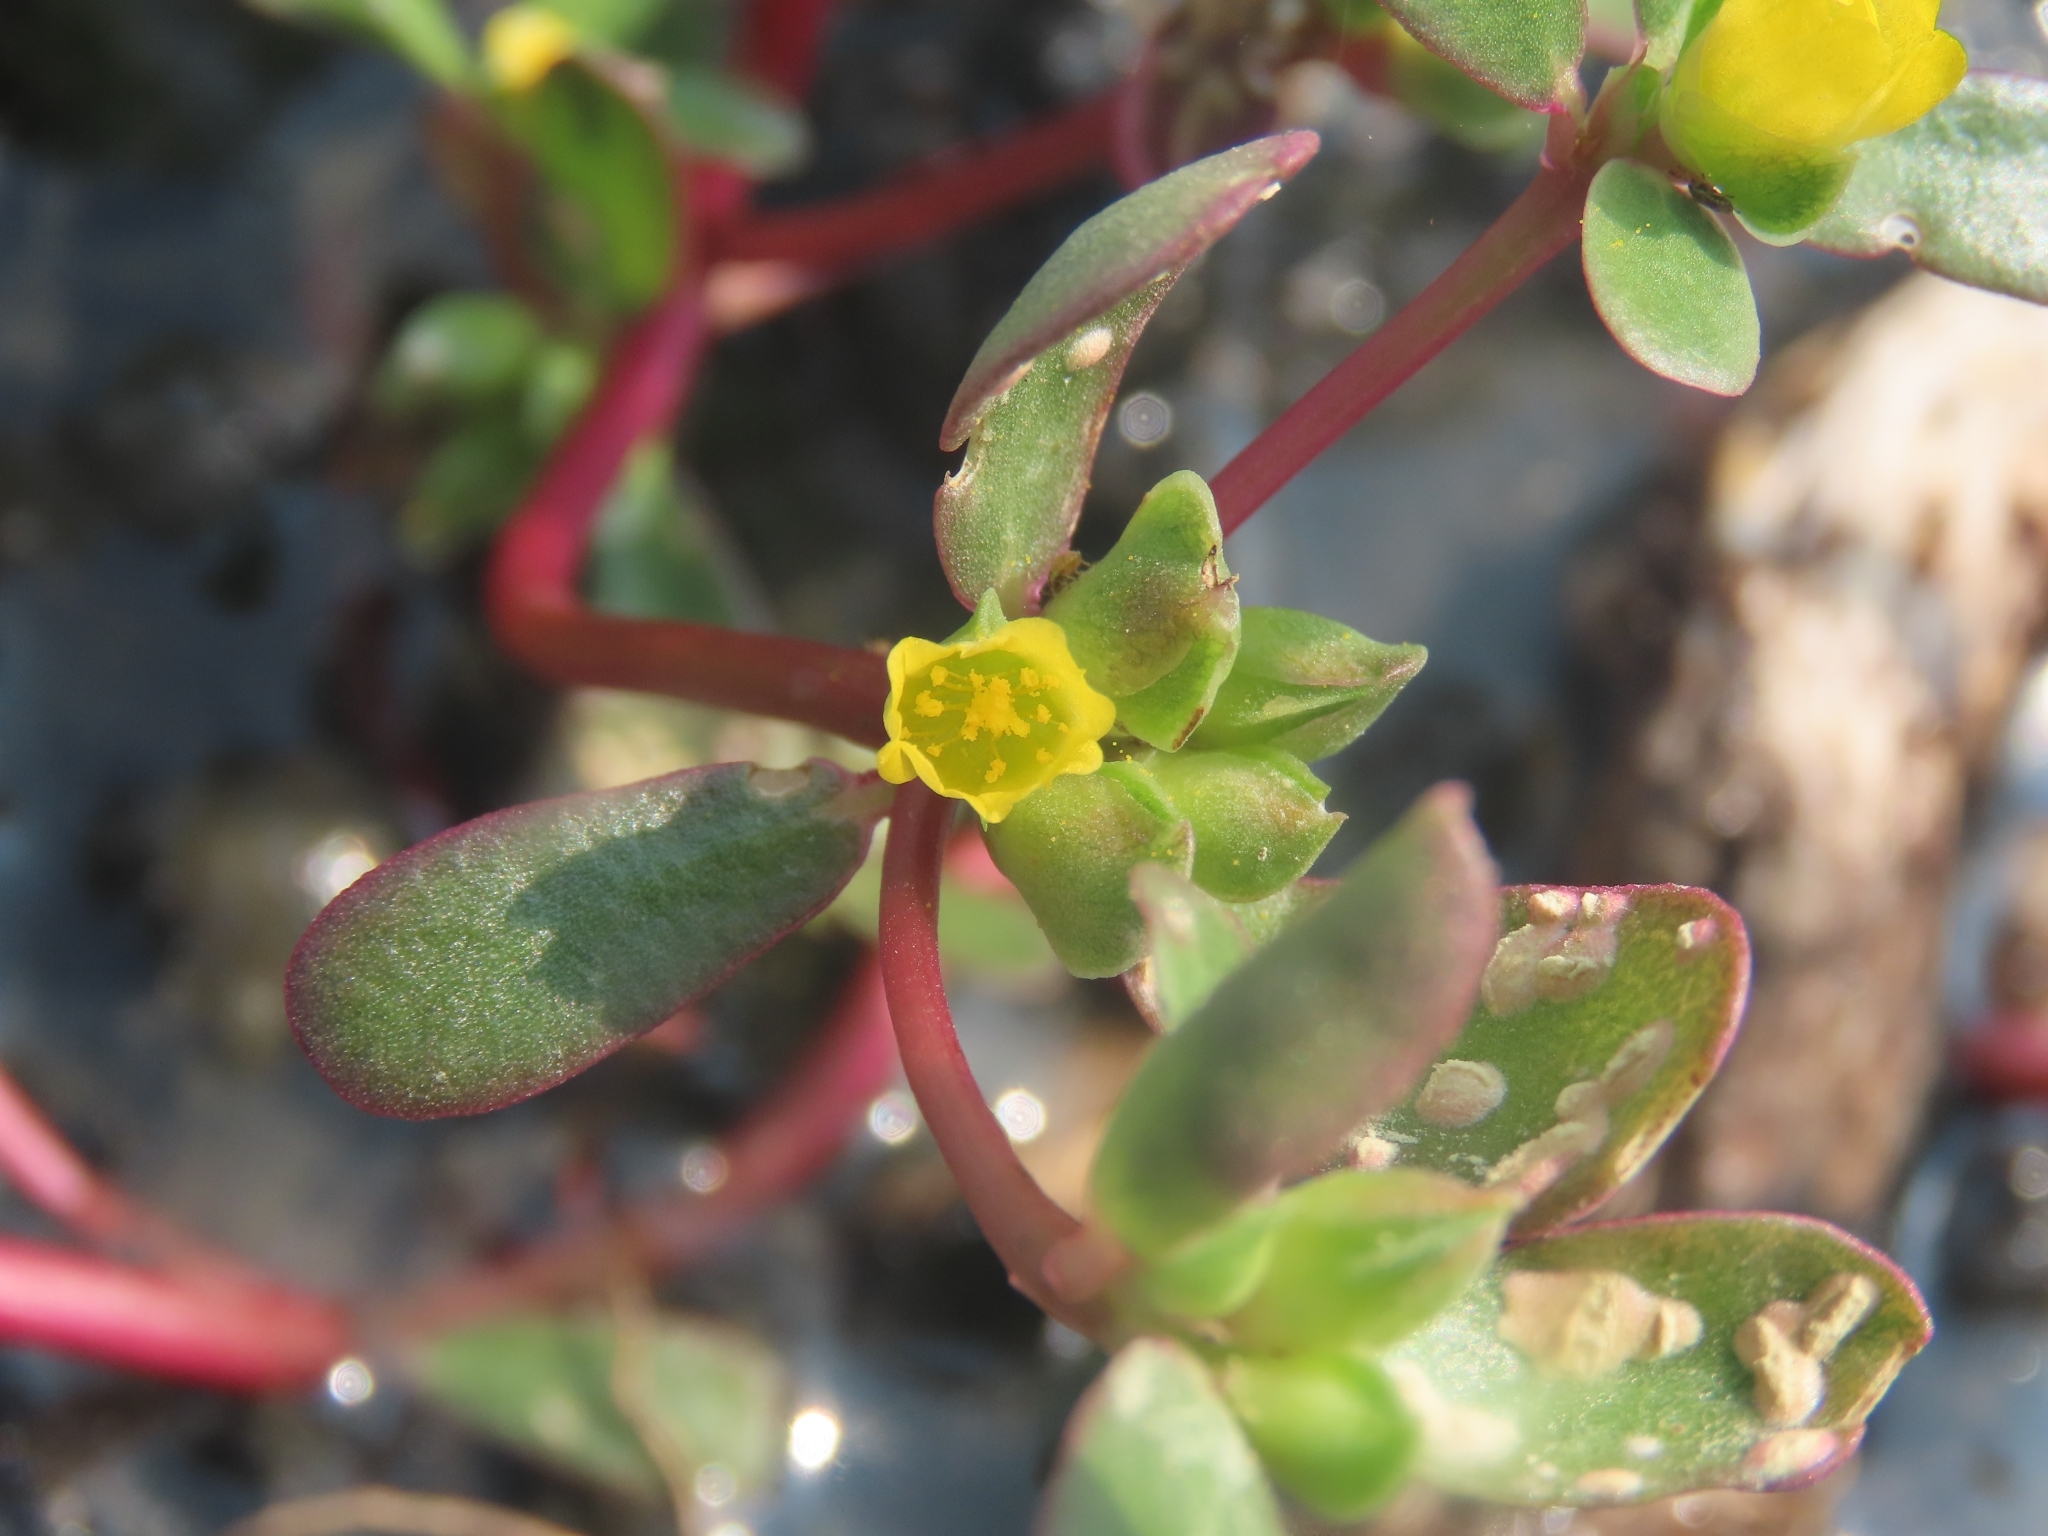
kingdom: Plantae
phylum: Tracheophyta
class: Magnoliopsida
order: Caryophyllales
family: Portulacaceae
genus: Portulaca
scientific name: Portulaca oleracea
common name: Common purslane
